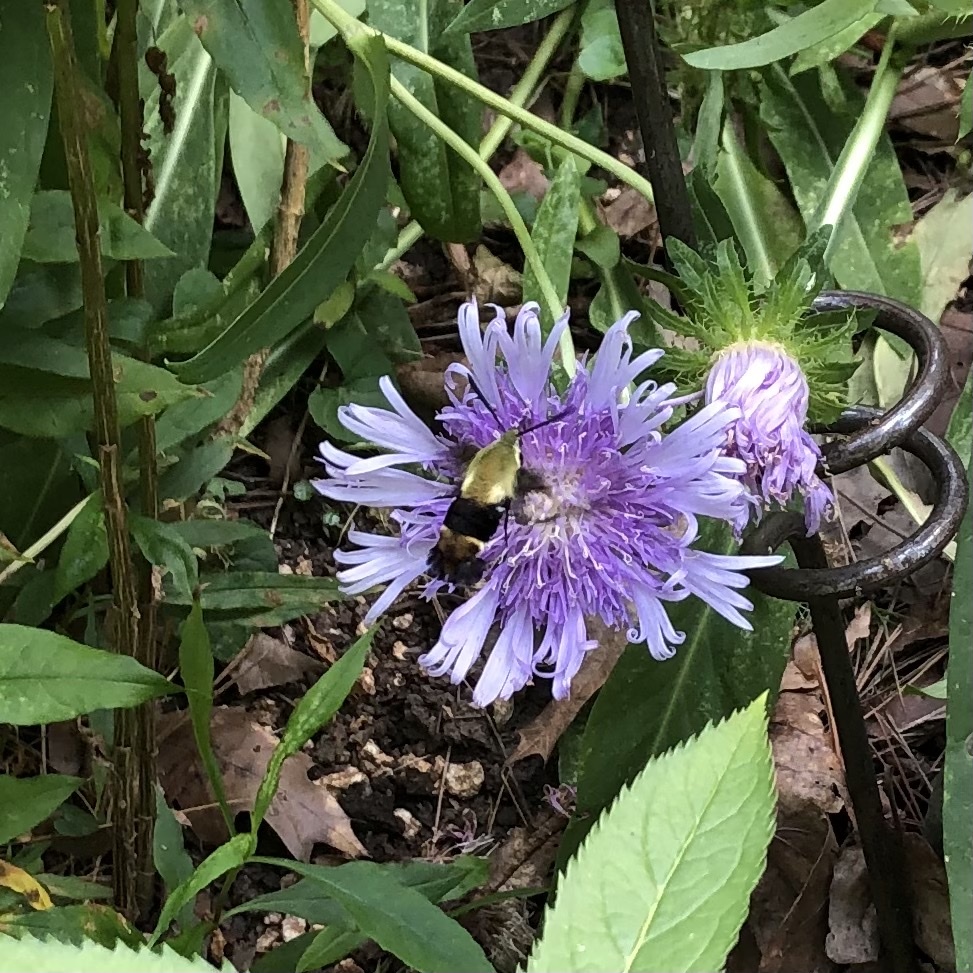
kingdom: Animalia
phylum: Arthropoda
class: Insecta
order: Lepidoptera
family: Sphingidae
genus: Hemaris
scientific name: Hemaris diffinis
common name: Bumblebee moth
